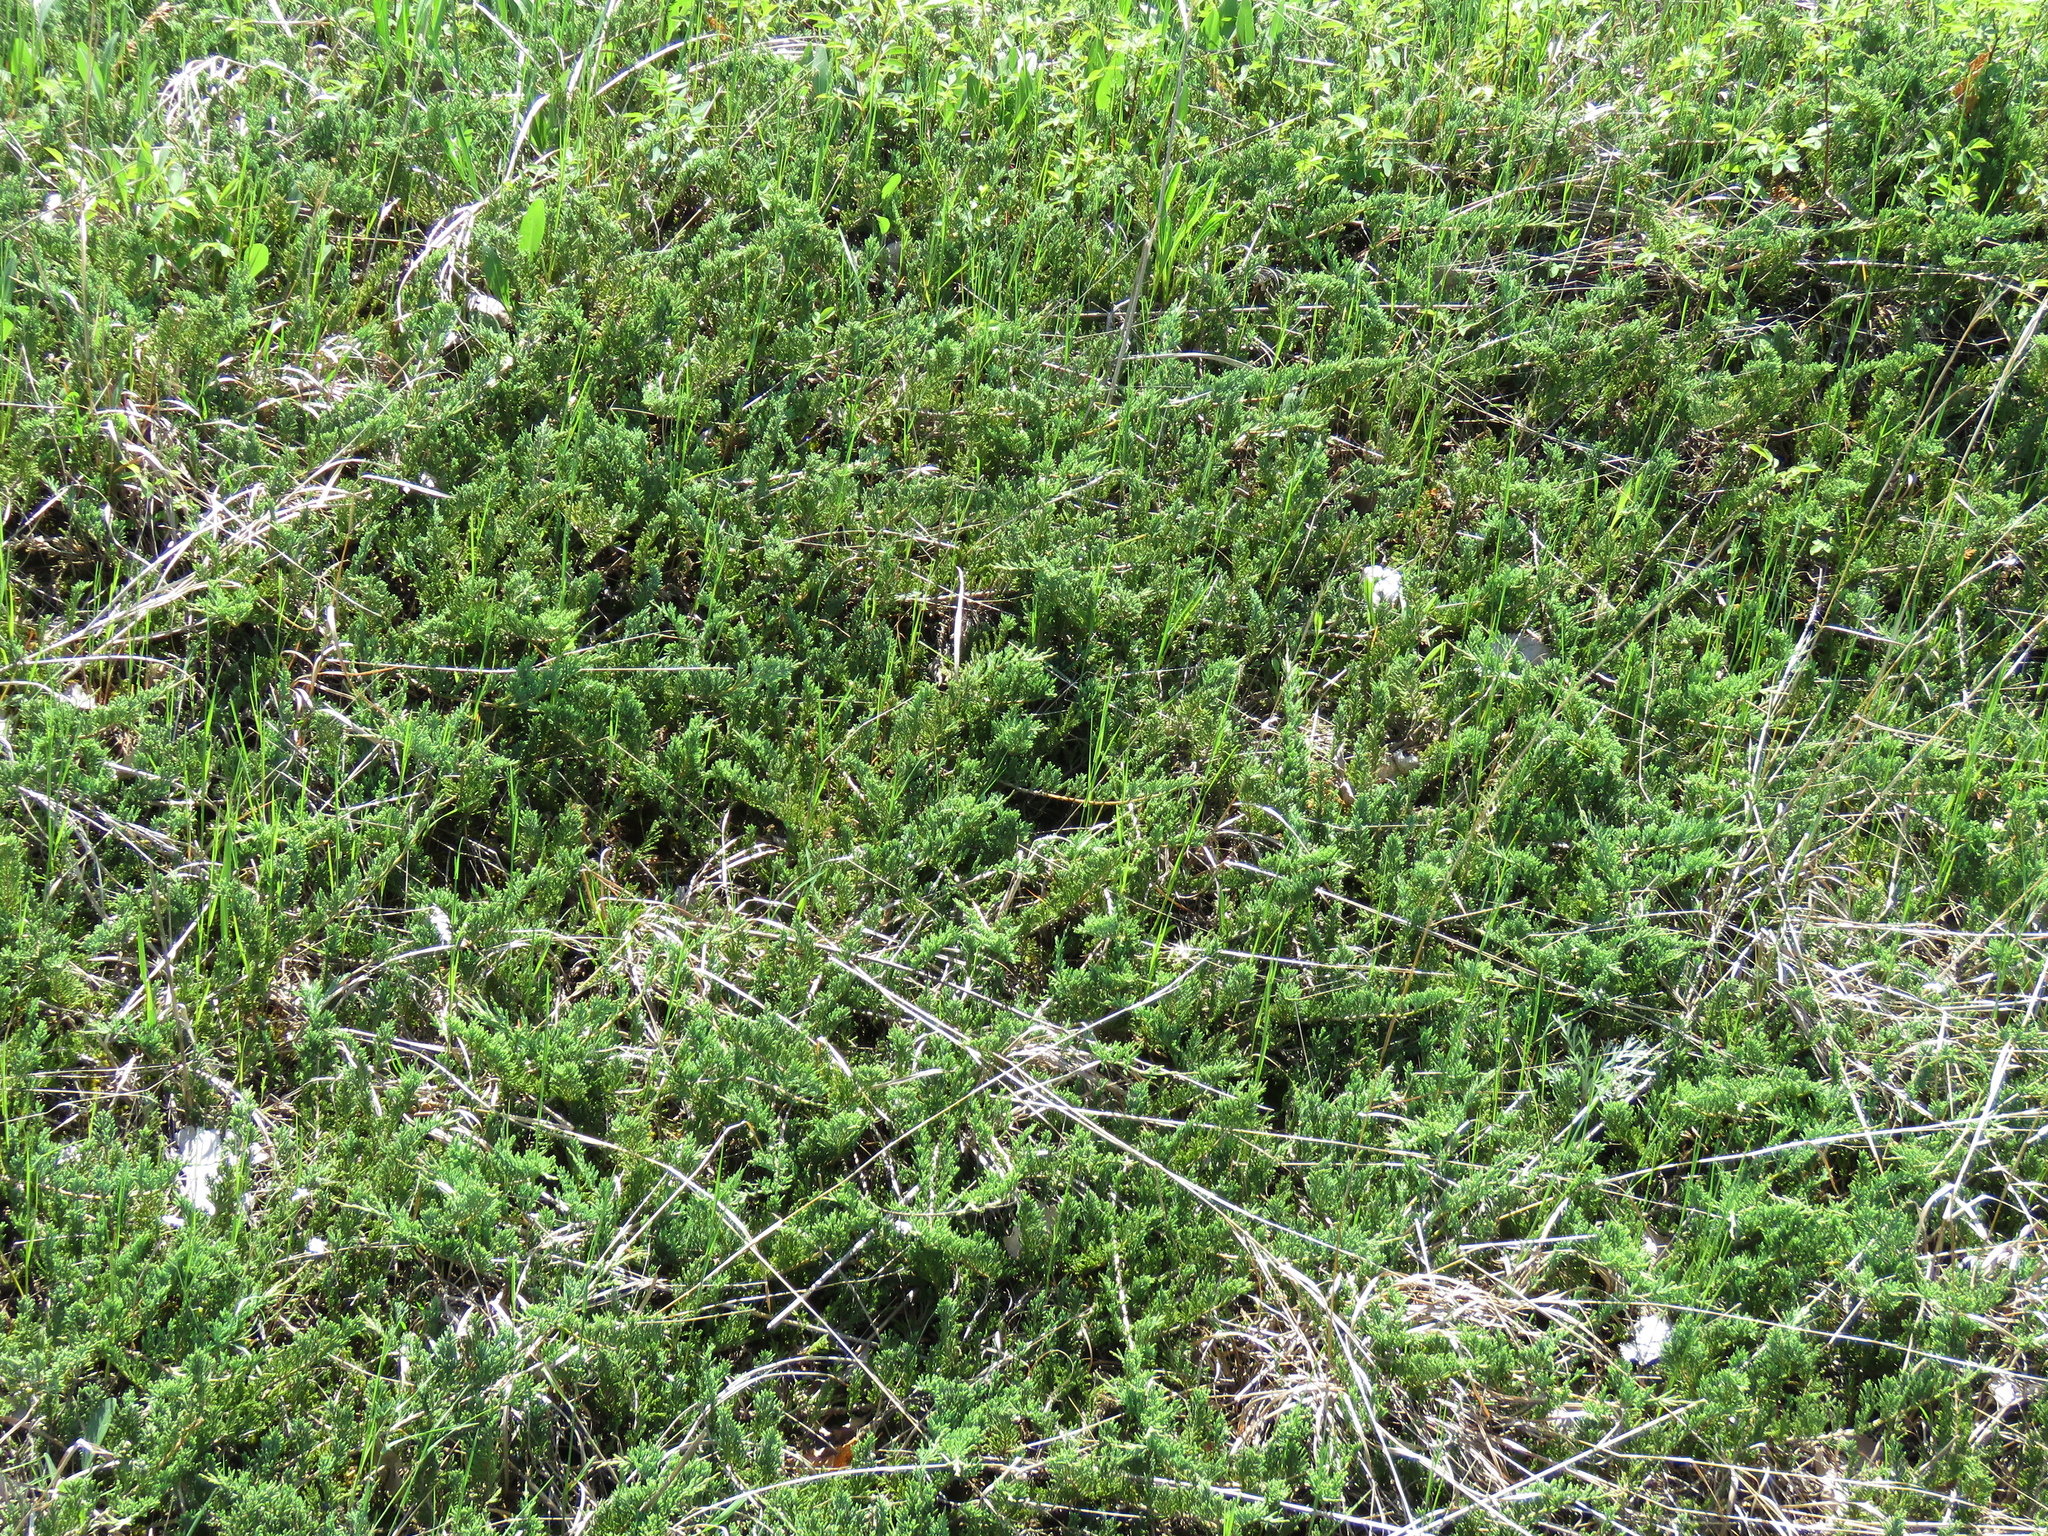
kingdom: Plantae
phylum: Tracheophyta
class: Pinopsida
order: Pinales
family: Cupressaceae
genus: Juniperus
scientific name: Juniperus horizontalis
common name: Creeping juniper
